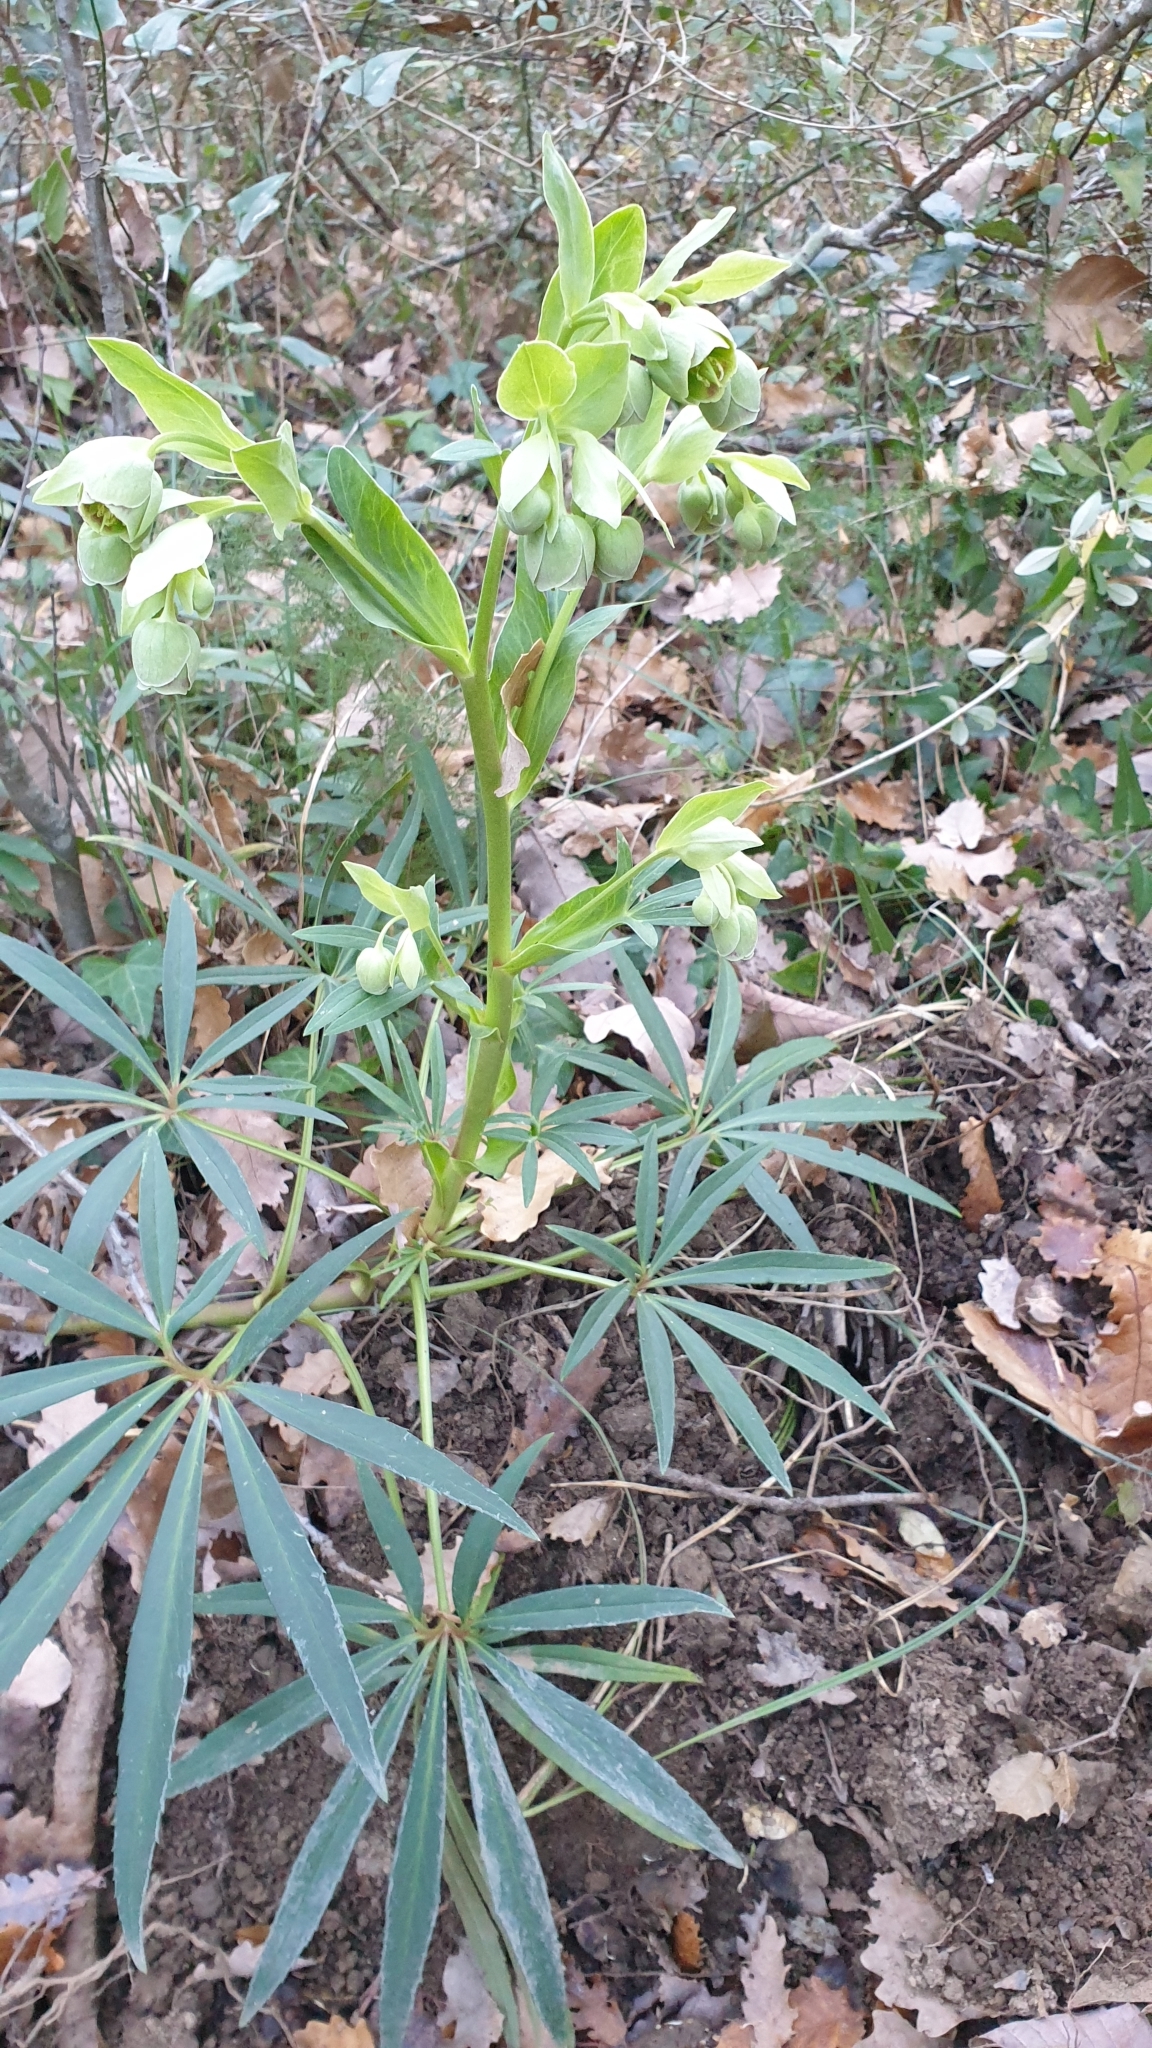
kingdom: Plantae
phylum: Tracheophyta
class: Magnoliopsida
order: Ranunculales
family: Ranunculaceae
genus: Helleborus
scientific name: Helleborus foetidus
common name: Stinking hellebore
